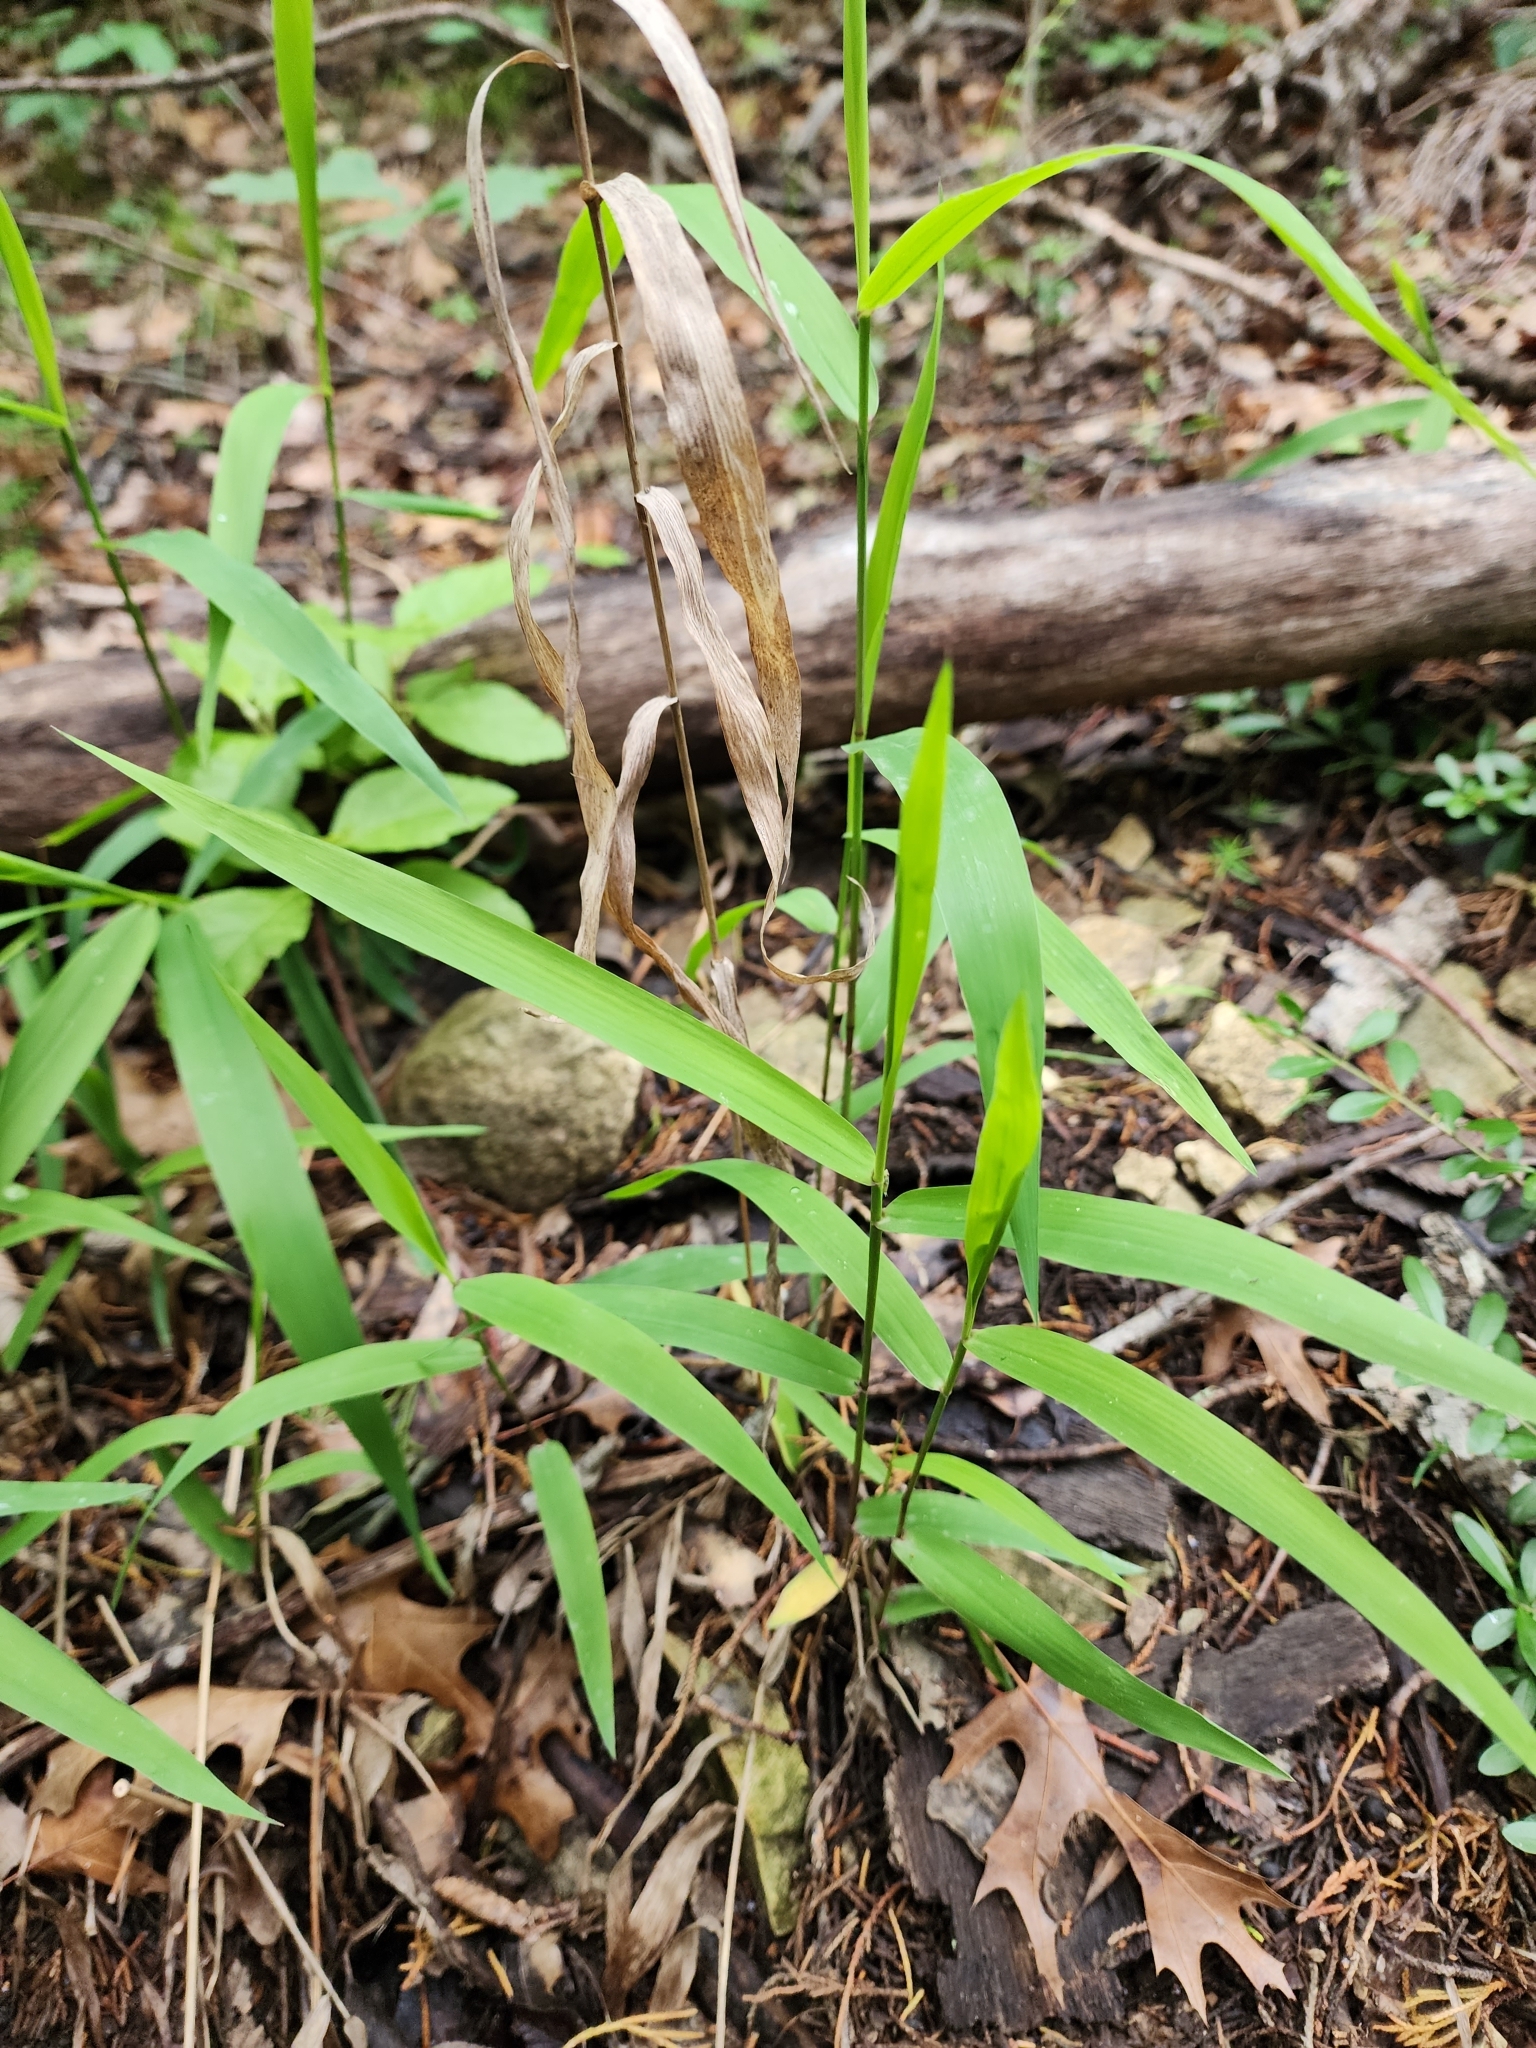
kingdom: Plantae
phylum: Tracheophyta
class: Liliopsida
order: Poales
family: Poaceae
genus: Chasmanthium
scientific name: Chasmanthium latifolium
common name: Broad-leaved chasmanthium
